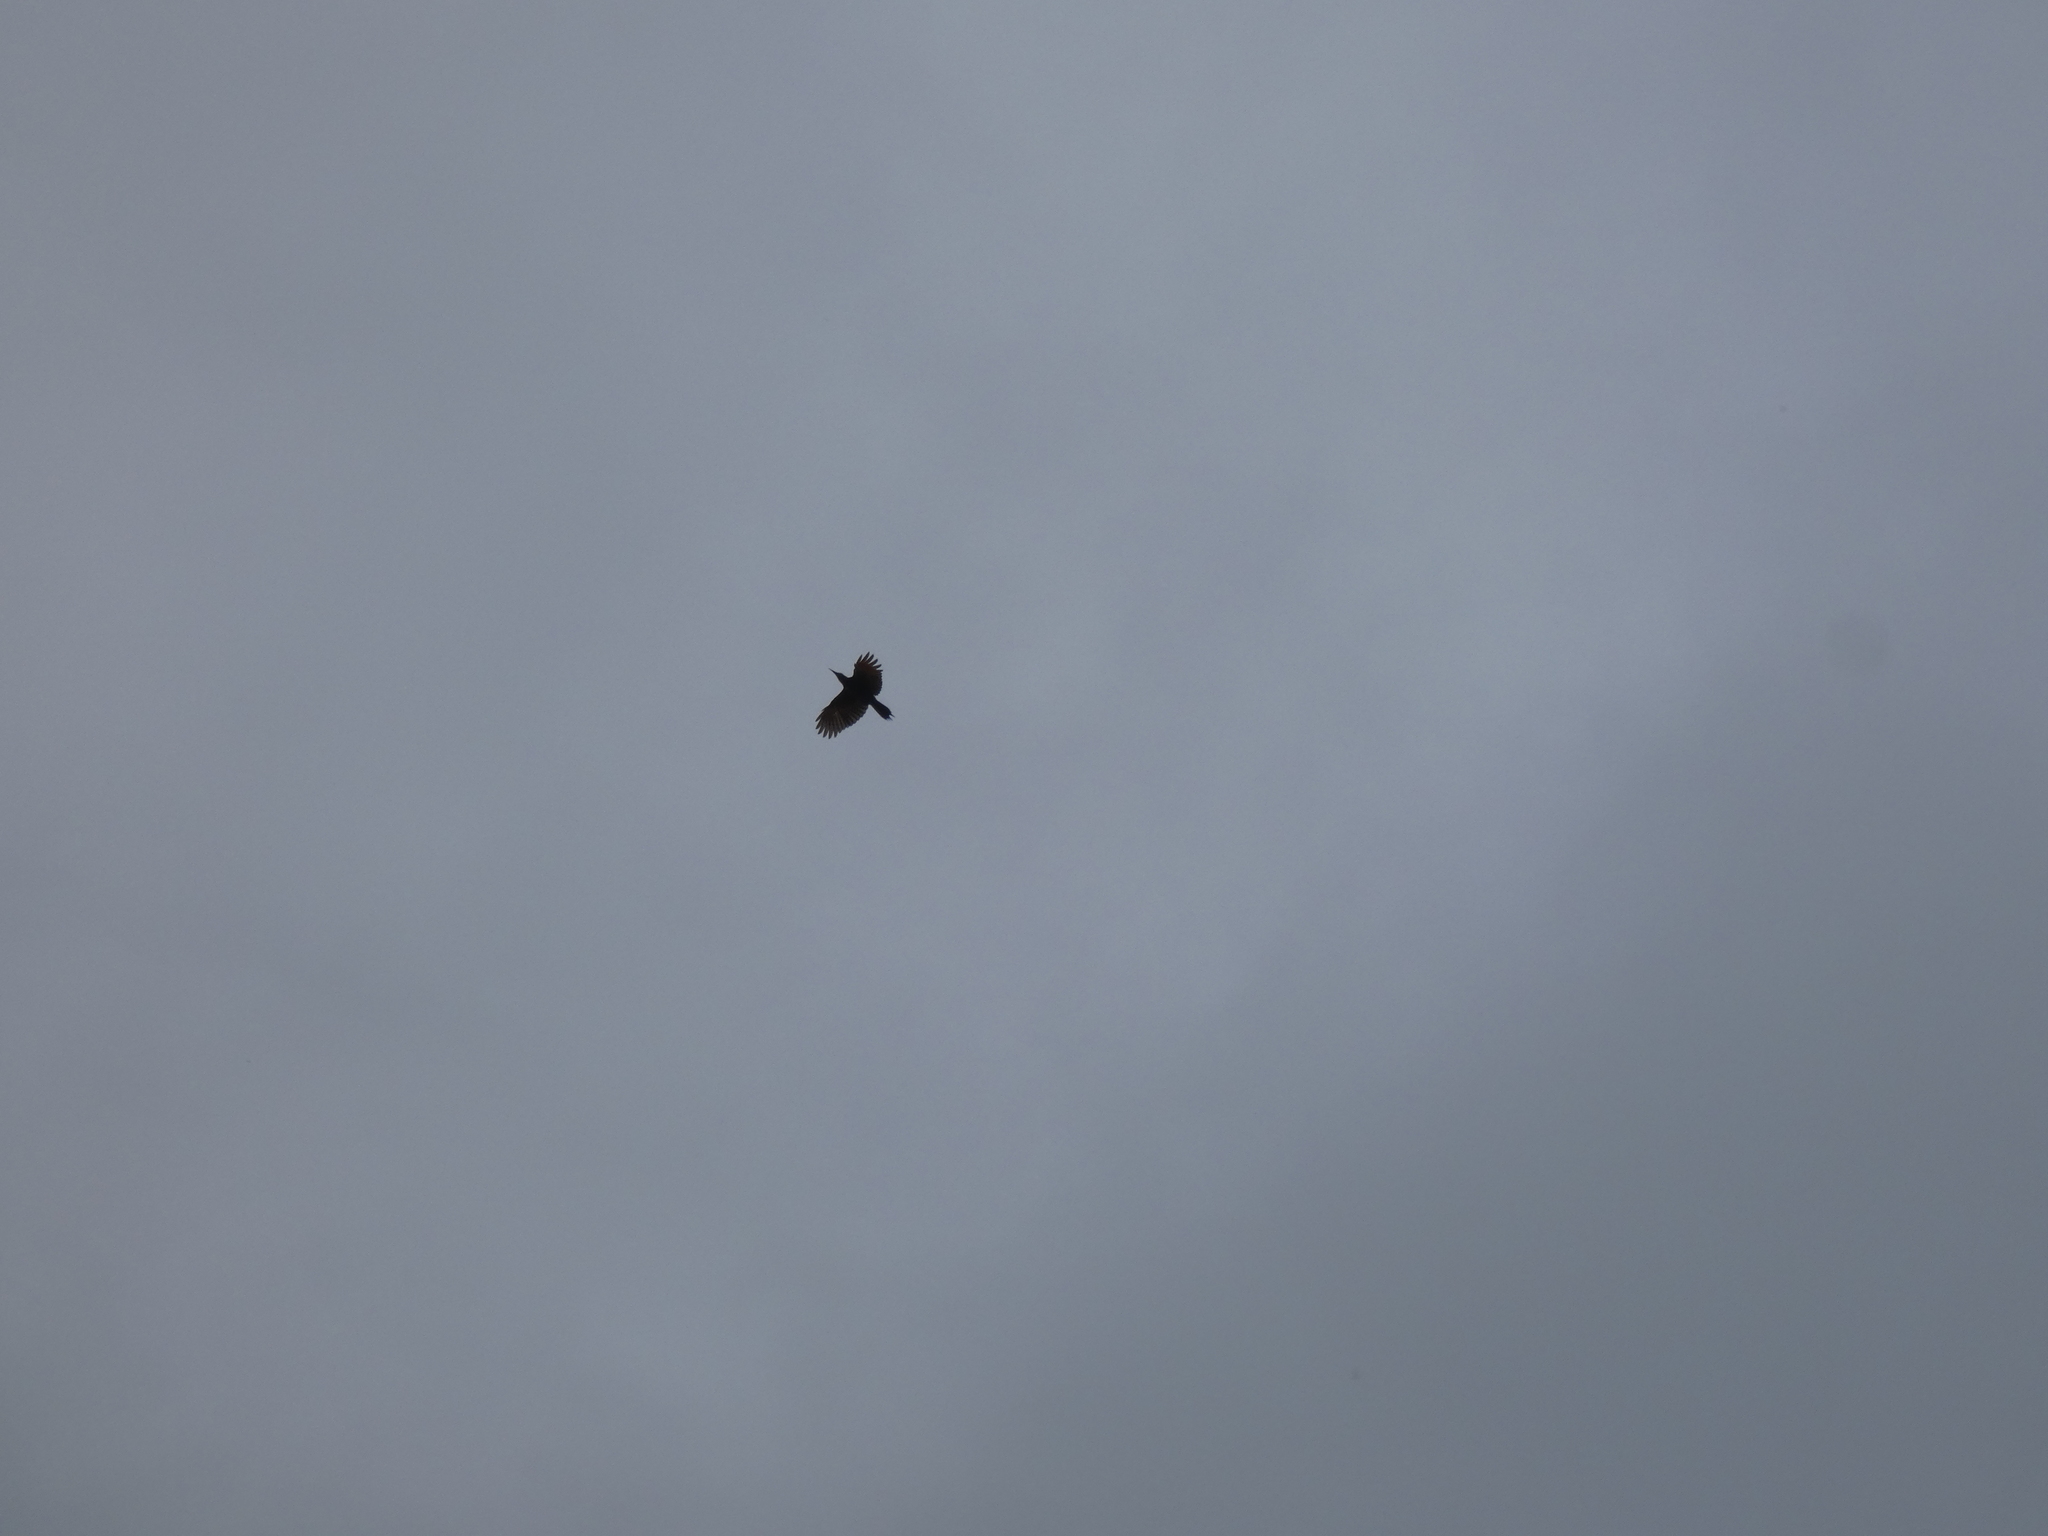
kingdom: Animalia
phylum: Chordata
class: Aves
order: Piciformes
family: Picidae
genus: Colaptes
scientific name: Colaptes auratus
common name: Northern flicker
